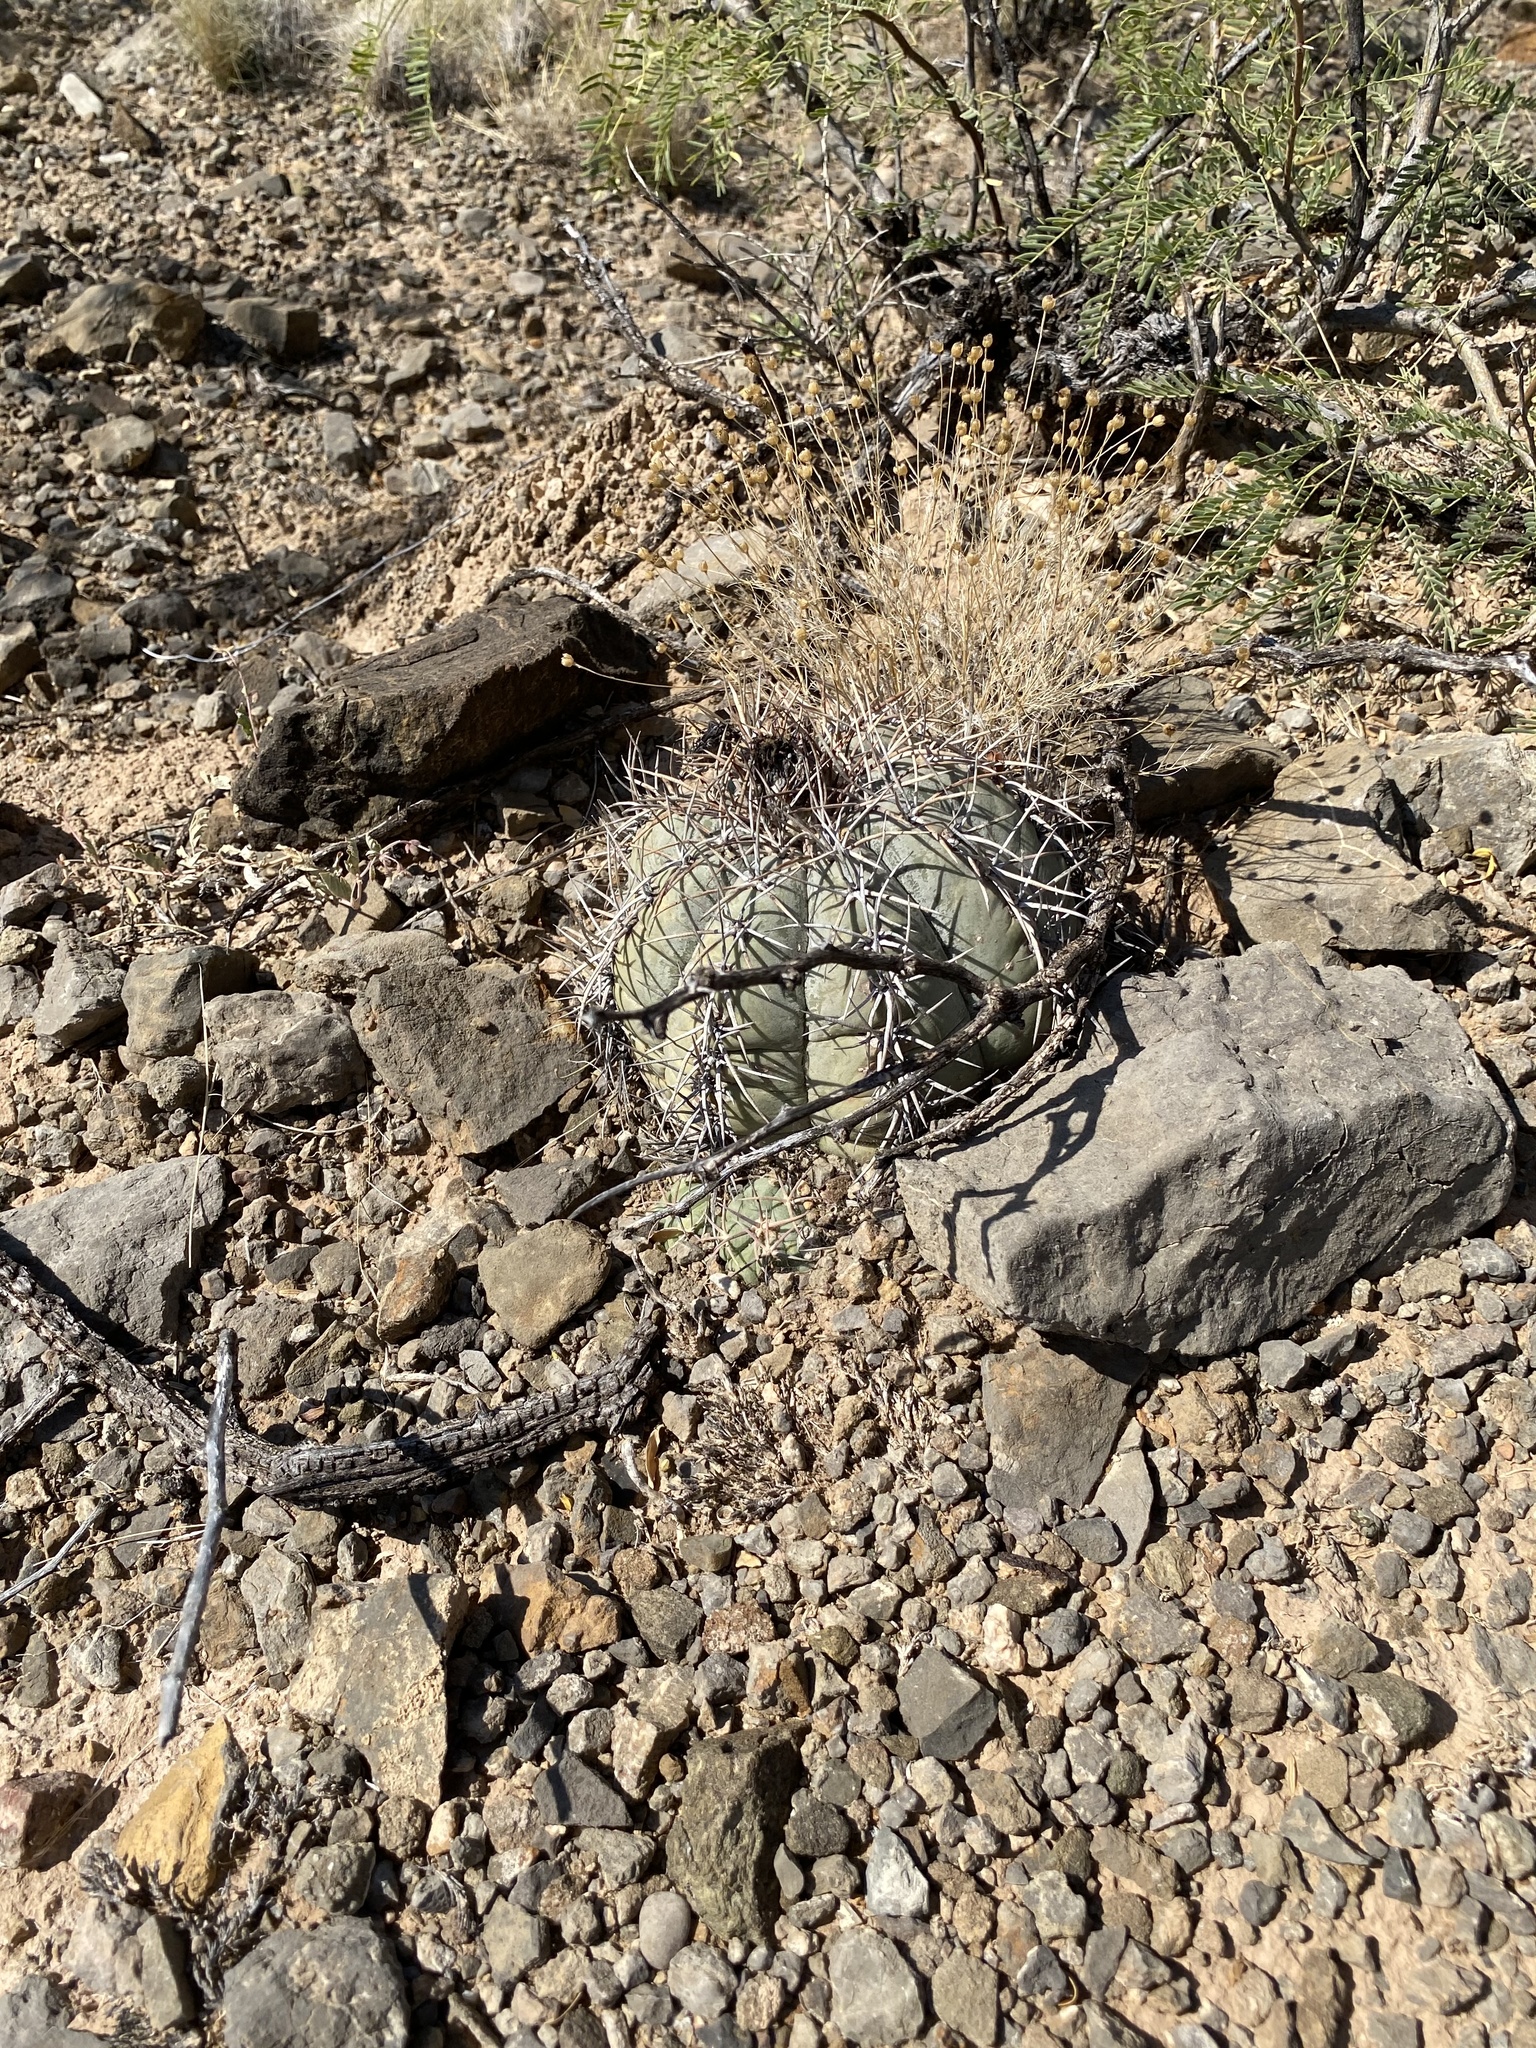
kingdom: Plantae
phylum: Tracheophyta
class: Magnoliopsida
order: Caryophyllales
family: Cactaceae
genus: Echinocactus
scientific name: Echinocactus horizonthalonius
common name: Devilshead
